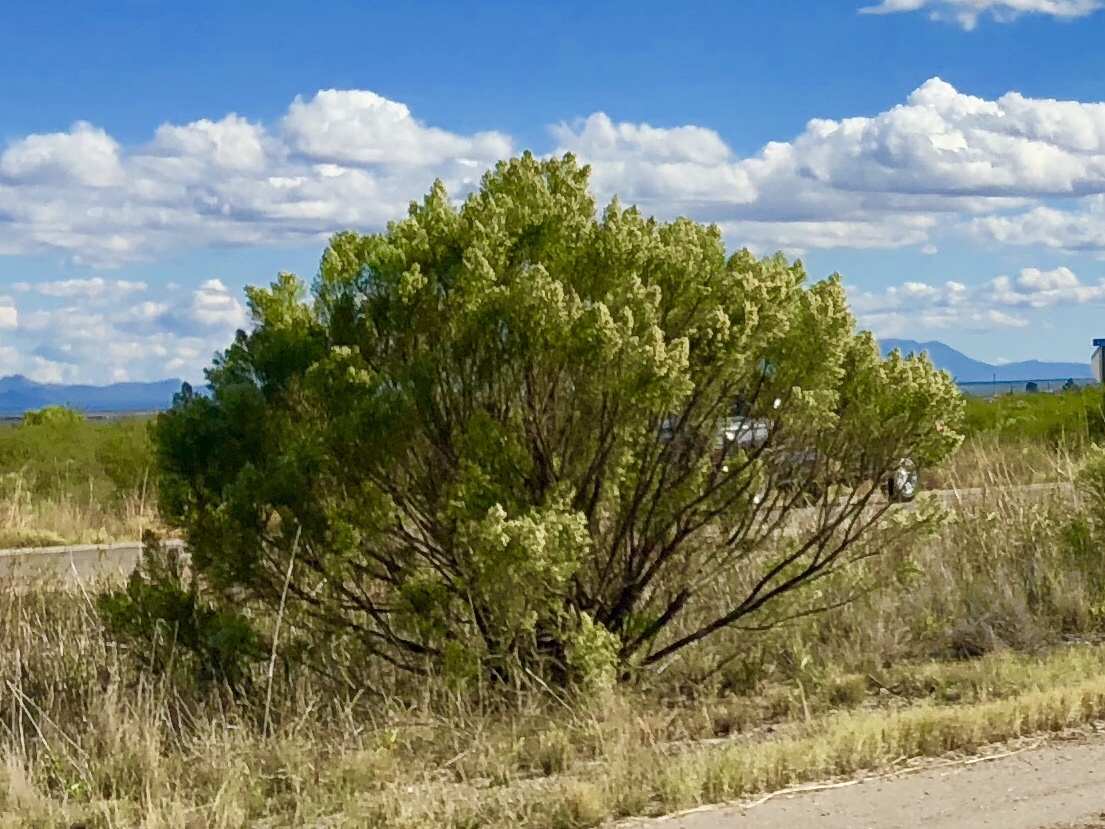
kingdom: Plantae
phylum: Tracheophyta
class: Magnoliopsida
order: Asterales
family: Asteraceae
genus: Baccharis
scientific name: Baccharis sarothroides
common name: Desert-broom
